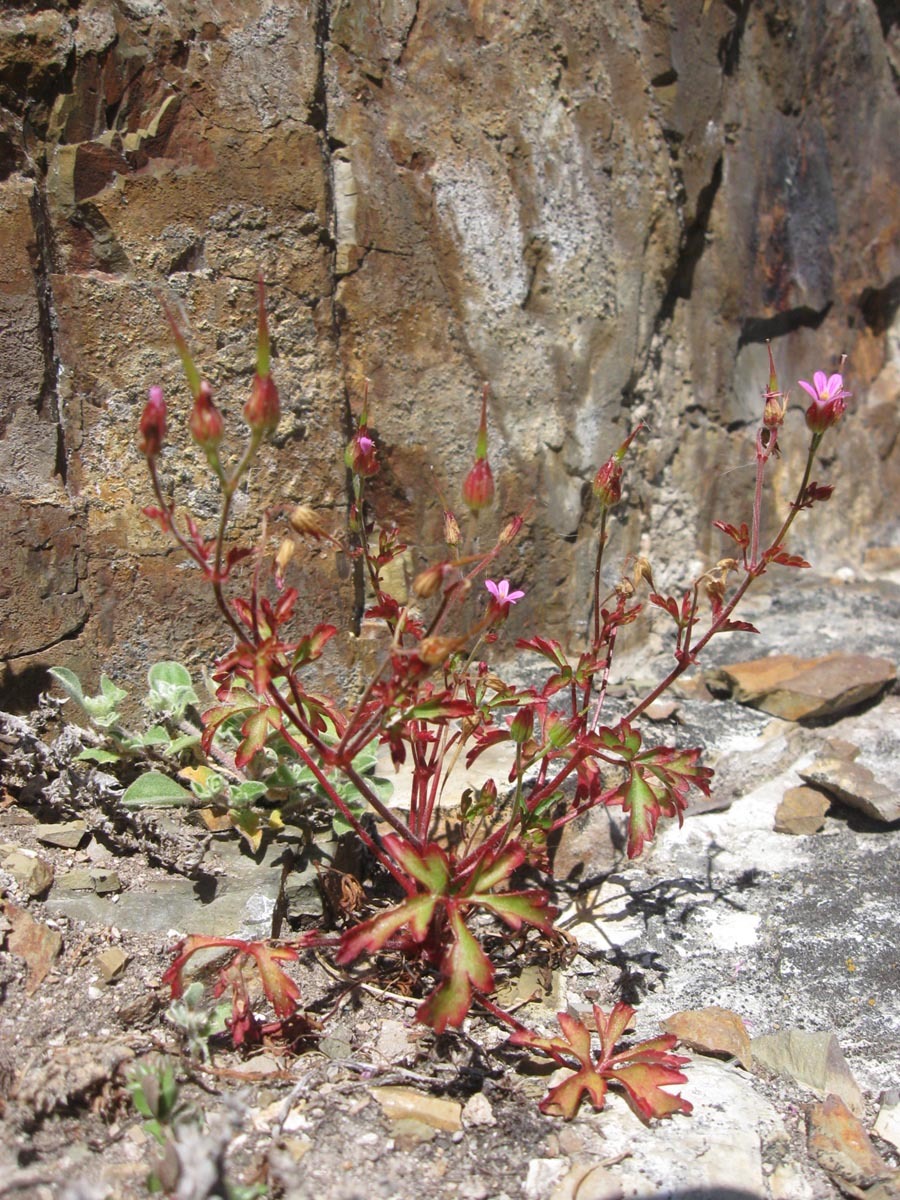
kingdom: Plantae
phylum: Tracheophyta
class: Magnoliopsida
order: Geraniales
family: Geraniaceae
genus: Geranium
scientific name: Geranium purpureum
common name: Little-robin
